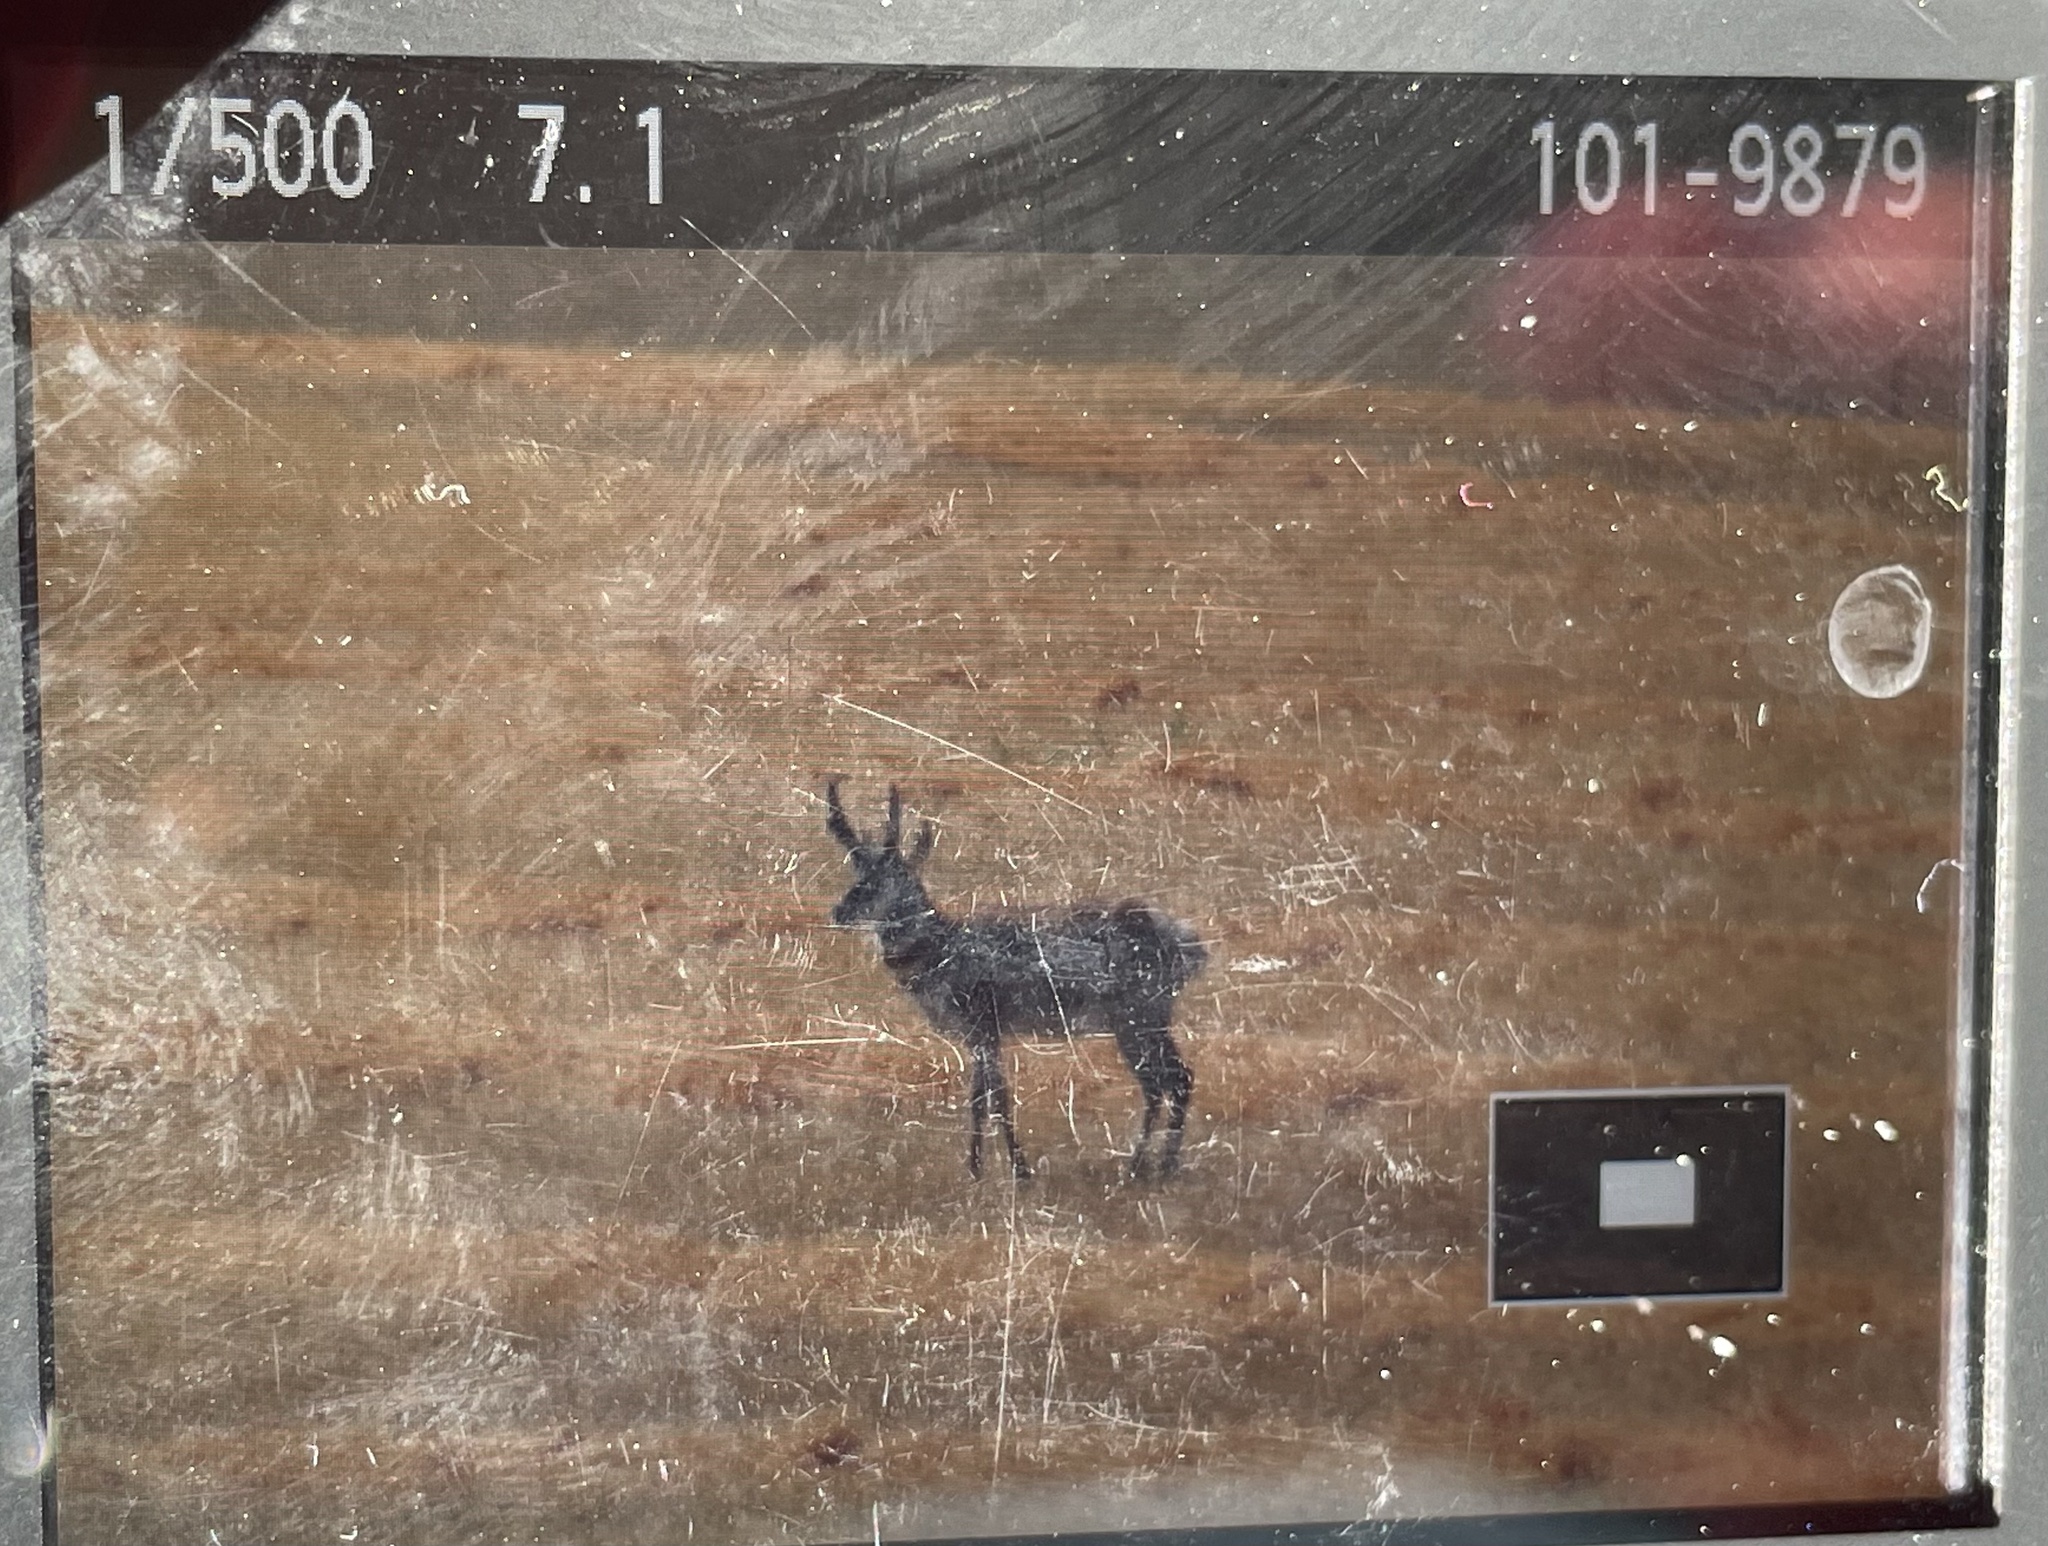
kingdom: Animalia
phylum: Chordata
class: Mammalia
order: Artiodactyla
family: Antilocapridae
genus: Antilocapra
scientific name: Antilocapra americana
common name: Pronghorn
